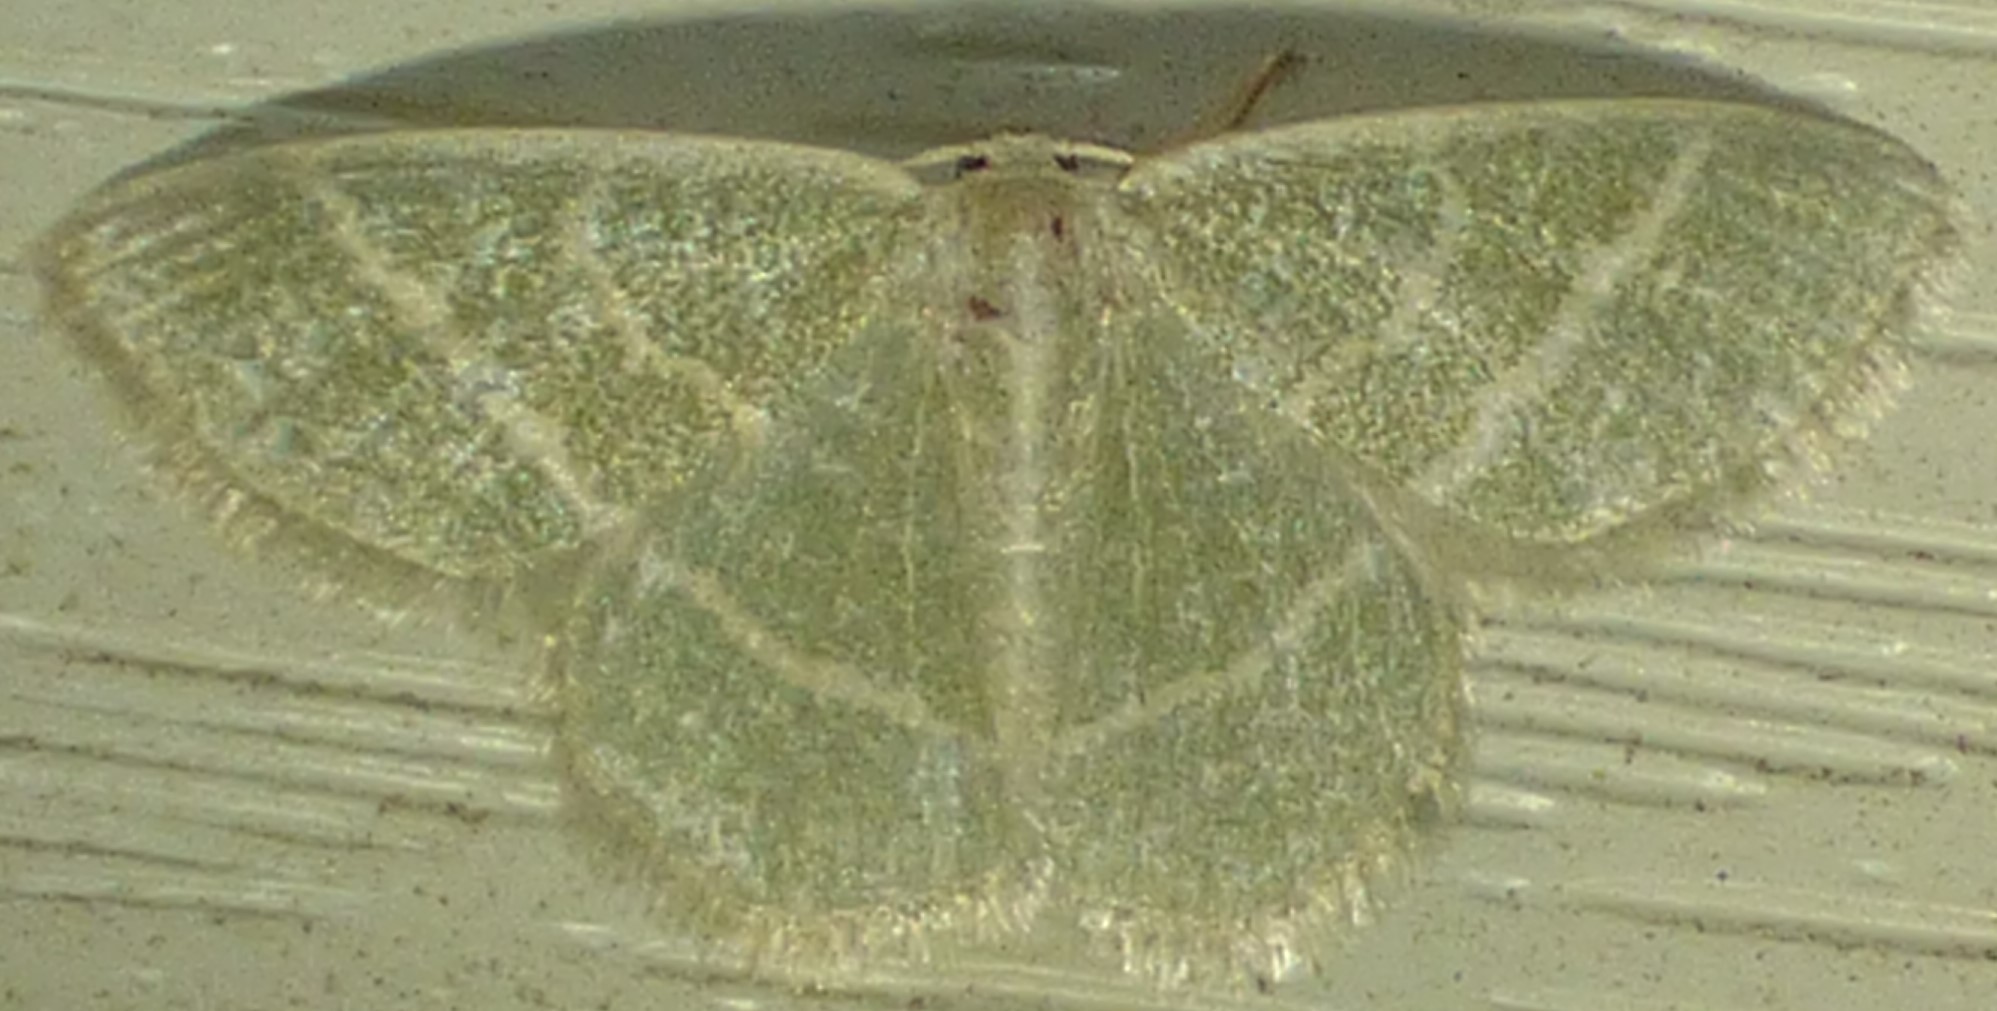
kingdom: Animalia
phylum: Arthropoda
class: Insecta
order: Lepidoptera
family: Geometridae
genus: Chlorochlamys
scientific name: Chlorochlamys chloroleucaria
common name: Blackberry looper
